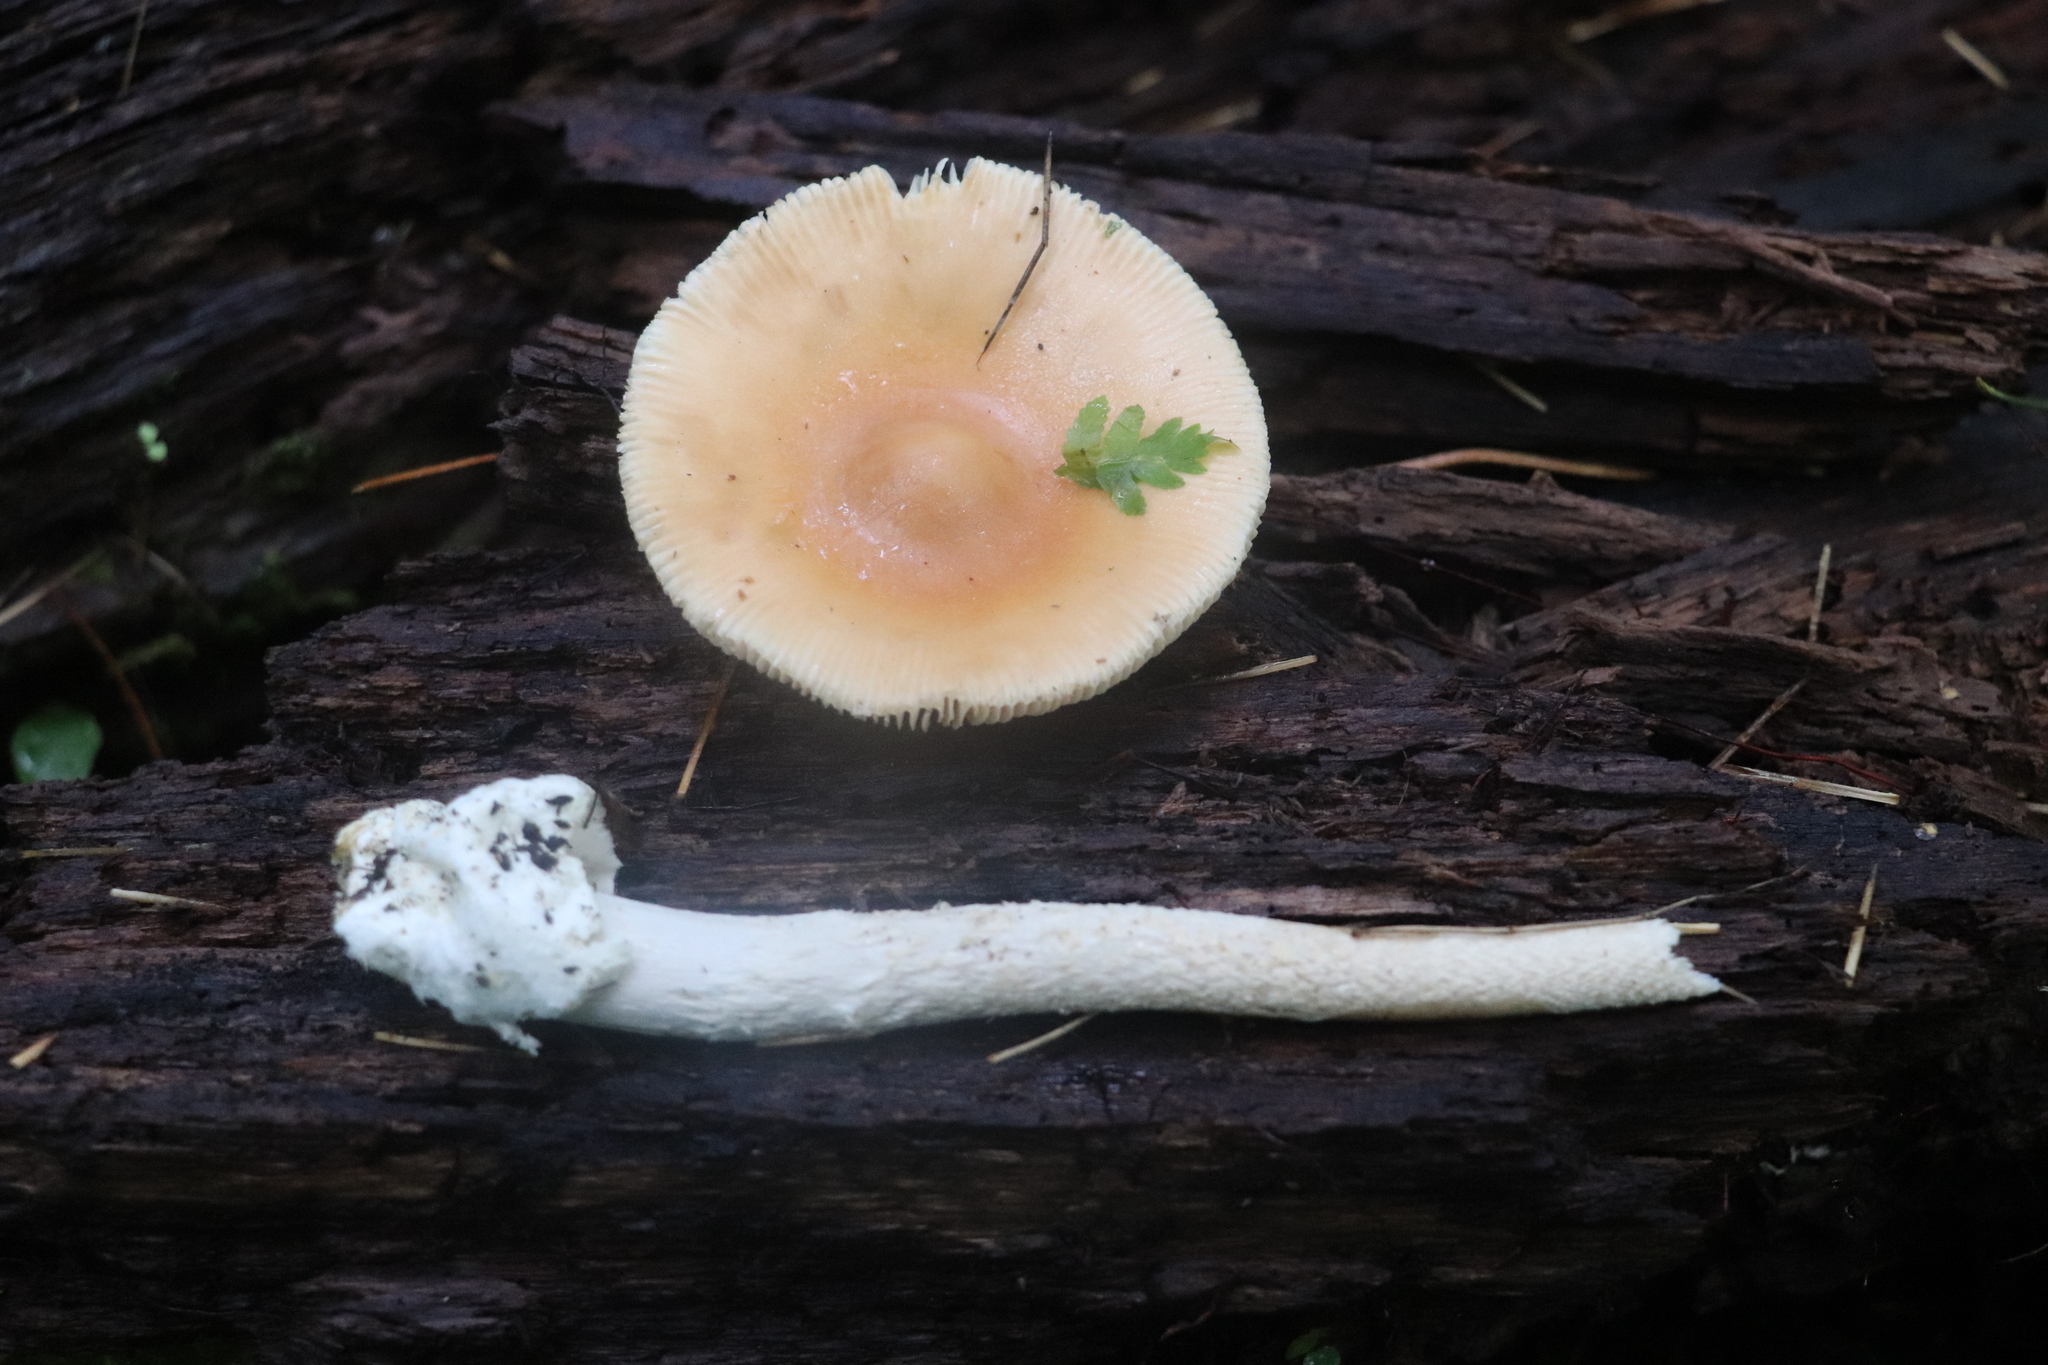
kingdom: Fungi
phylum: Basidiomycota
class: Agaricomycetes
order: Agaricales
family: Amanitaceae
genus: Amanita
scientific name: Amanita crocea
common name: Orange grisette
